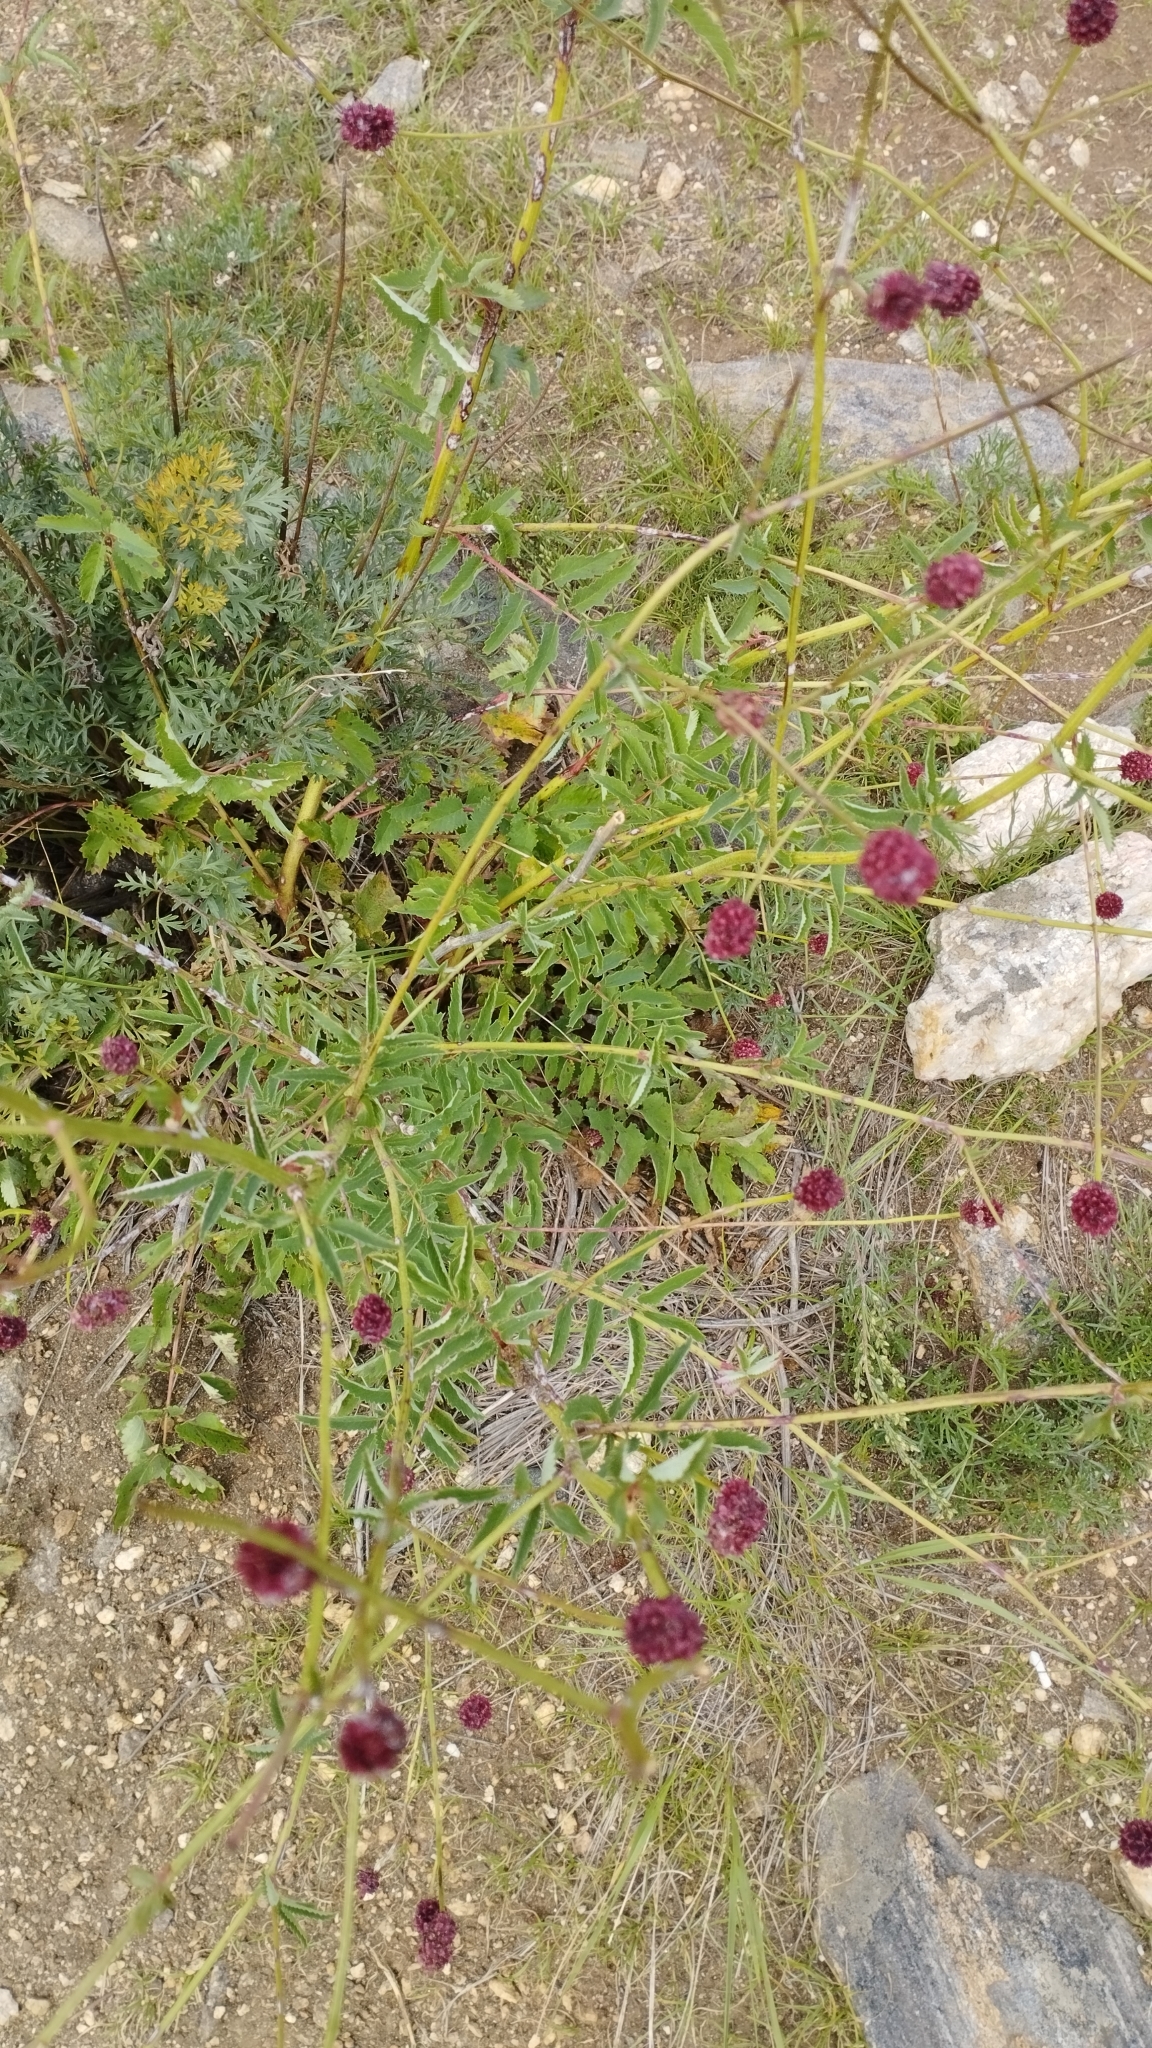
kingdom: Plantae
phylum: Tracheophyta
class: Magnoliopsida
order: Rosales
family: Rosaceae
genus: Sanguisorba
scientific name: Sanguisorba officinalis
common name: Great burnet
